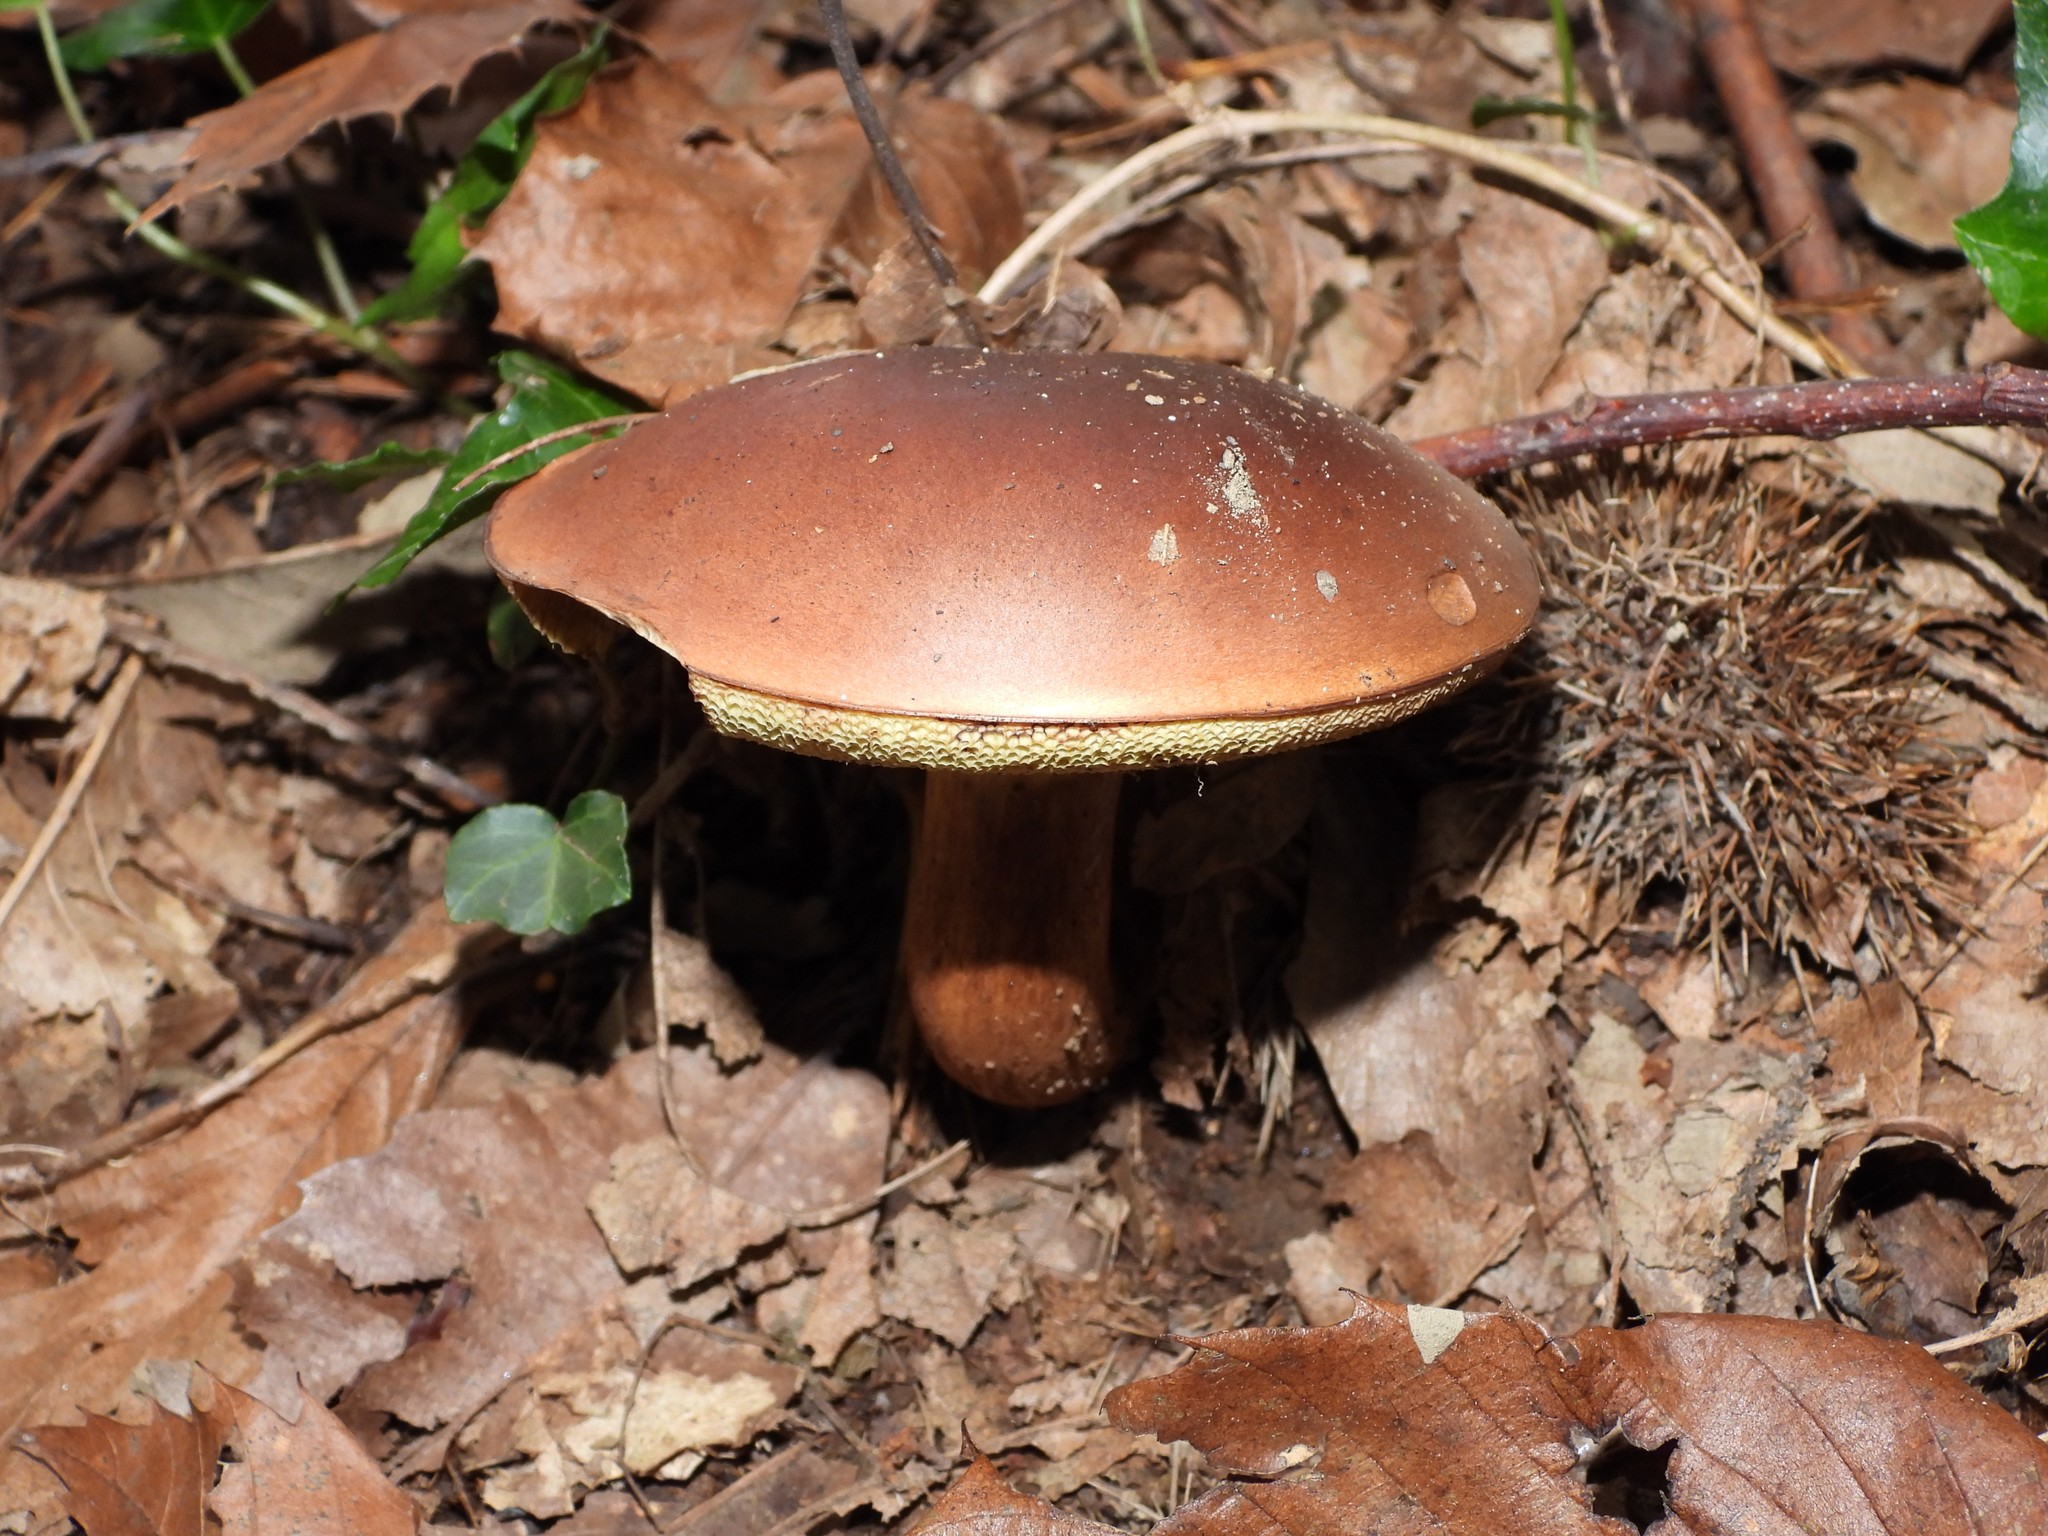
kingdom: Fungi
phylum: Basidiomycota
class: Agaricomycetes
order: Boletales
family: Boletaceae
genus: Imleria
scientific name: Imleria badia
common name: Bay bolete
